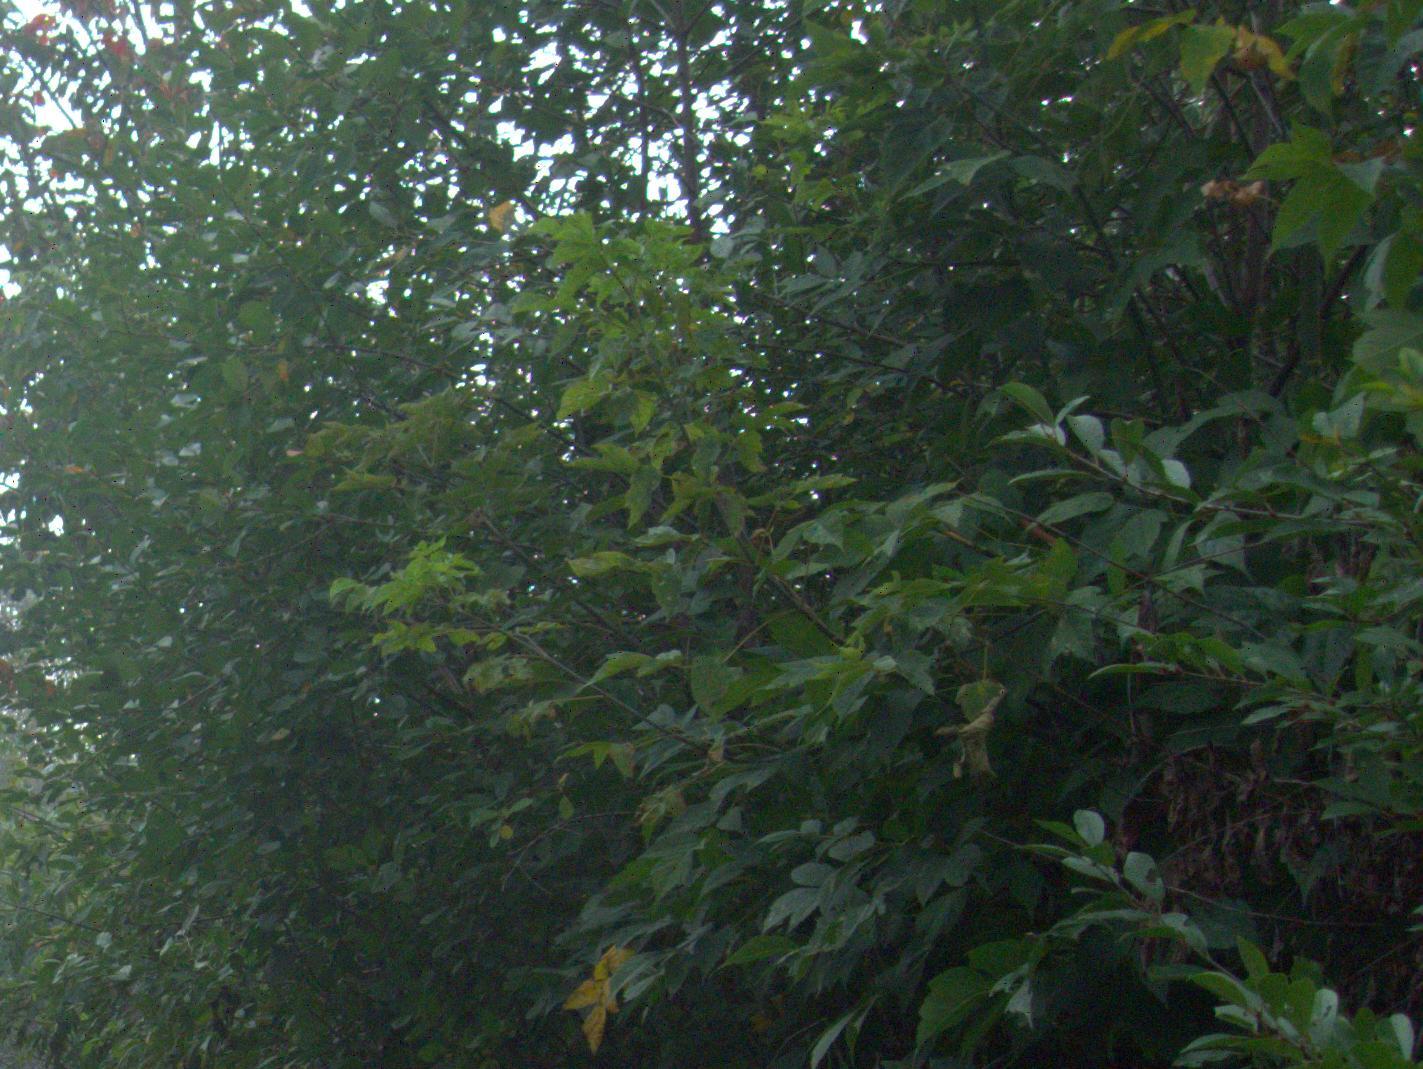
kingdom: Plantae
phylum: Tracheophyta
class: Magnoliopsida
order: Sapindales
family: Sapindaceae
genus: Acer
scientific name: Acer negundo
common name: Ashleaf maple
